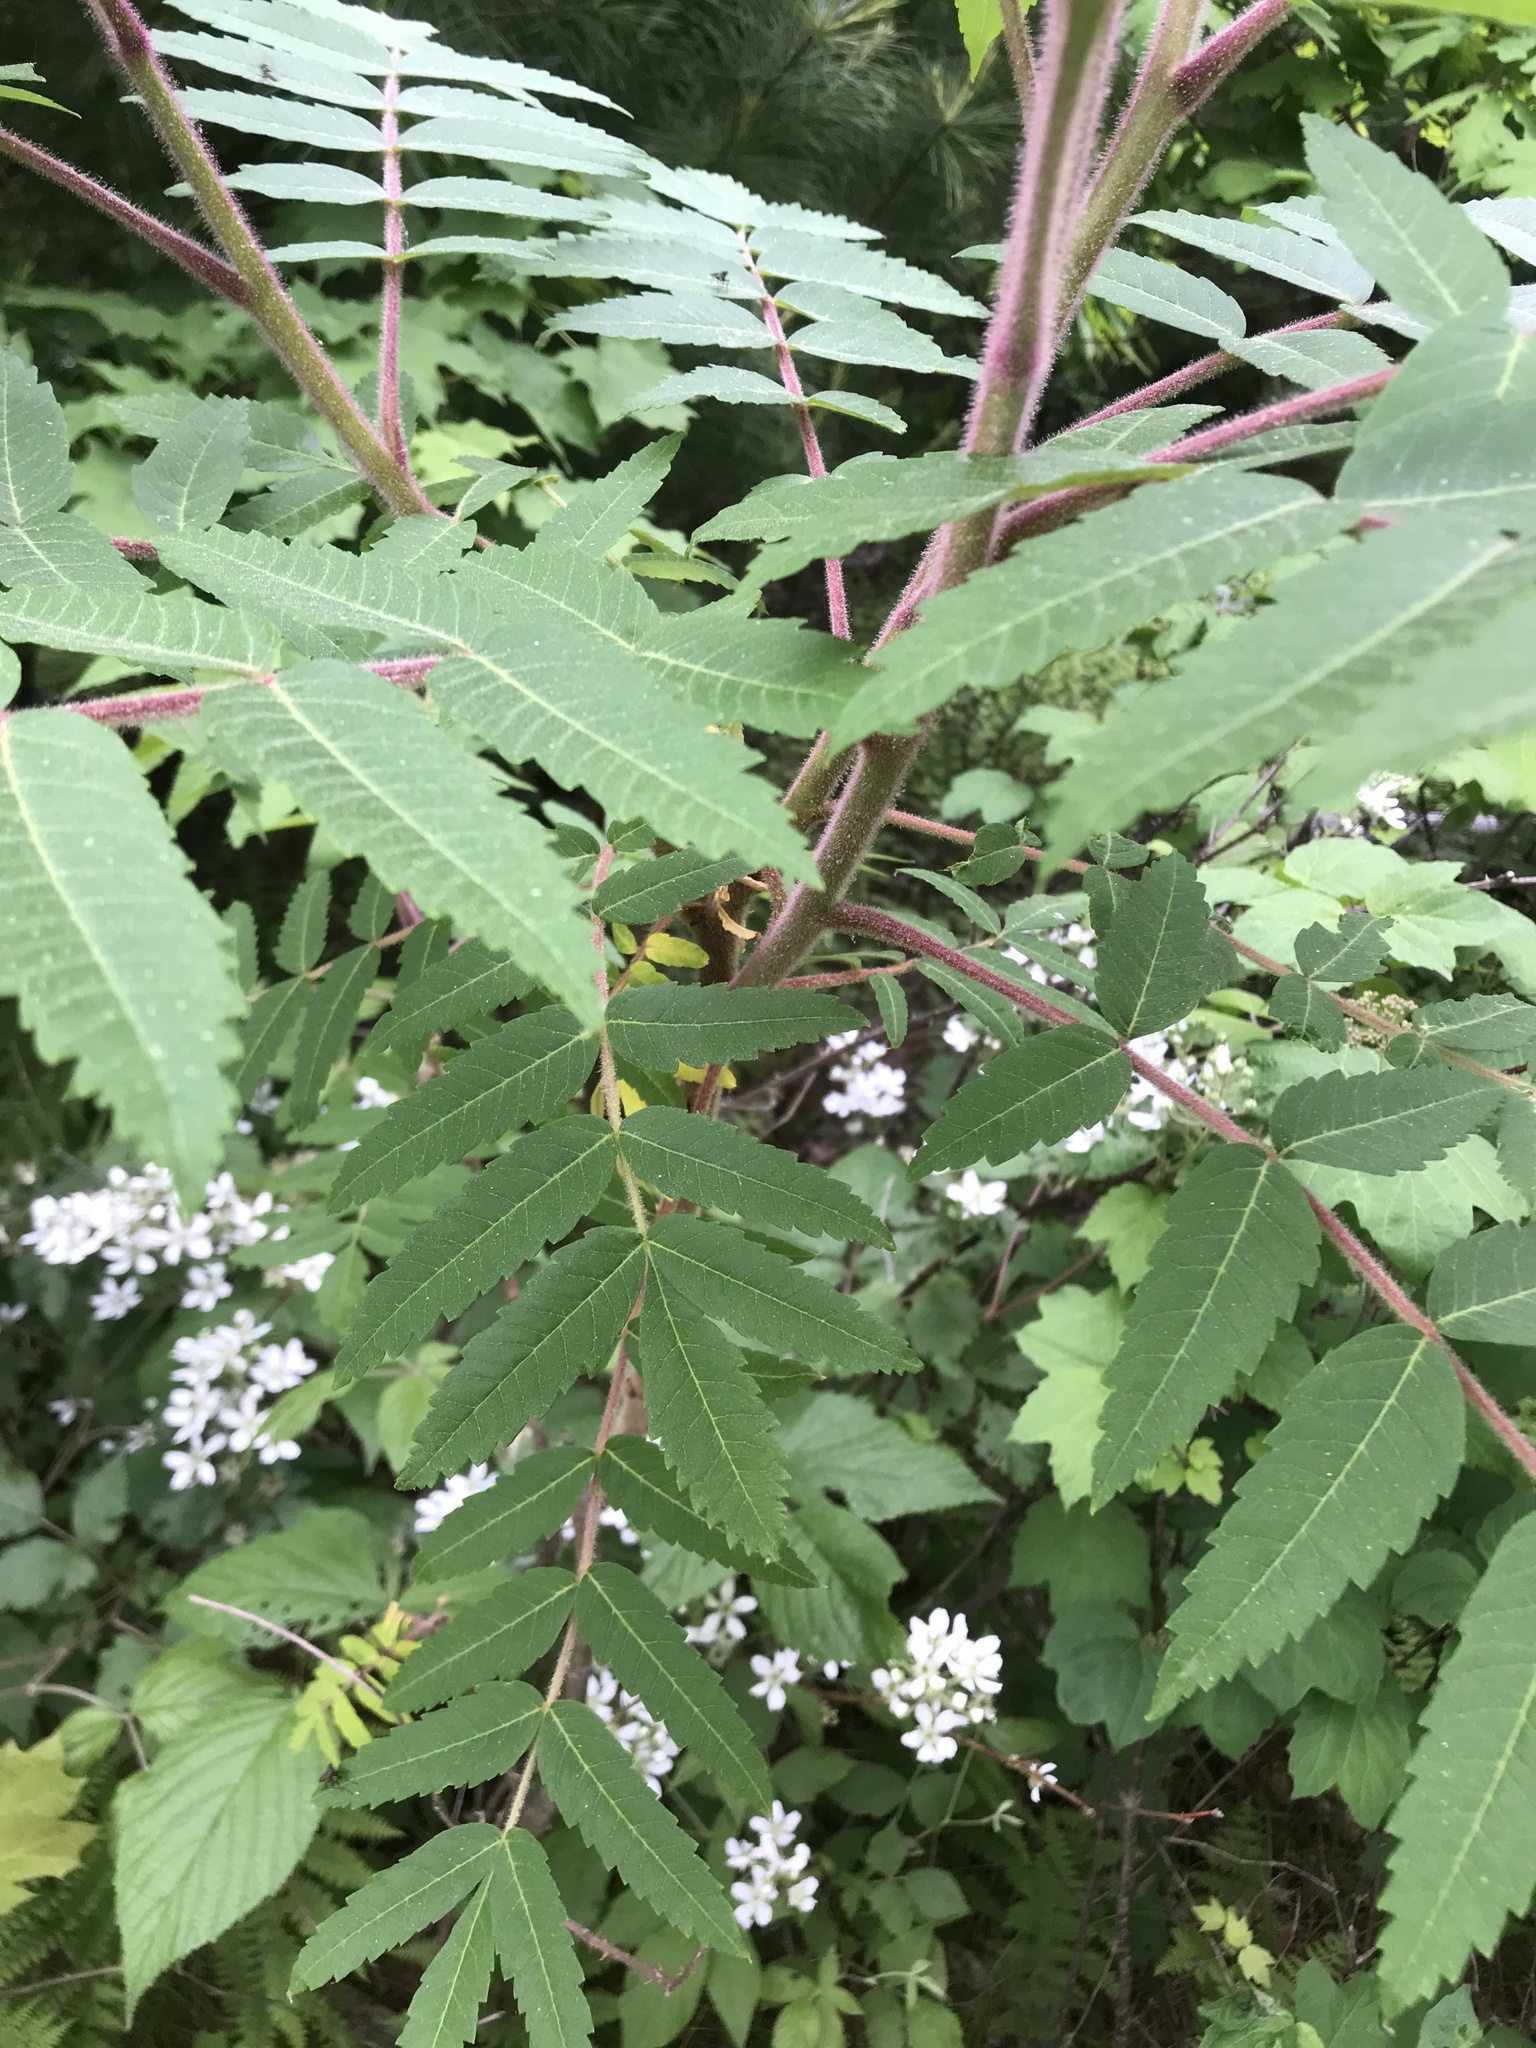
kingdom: Plantae
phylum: Tracheophyta
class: Magnoliopsida
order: Sapindales
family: Anacardiaceae
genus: Rhus
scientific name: Rhus typhina
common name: Staghorn sumac
